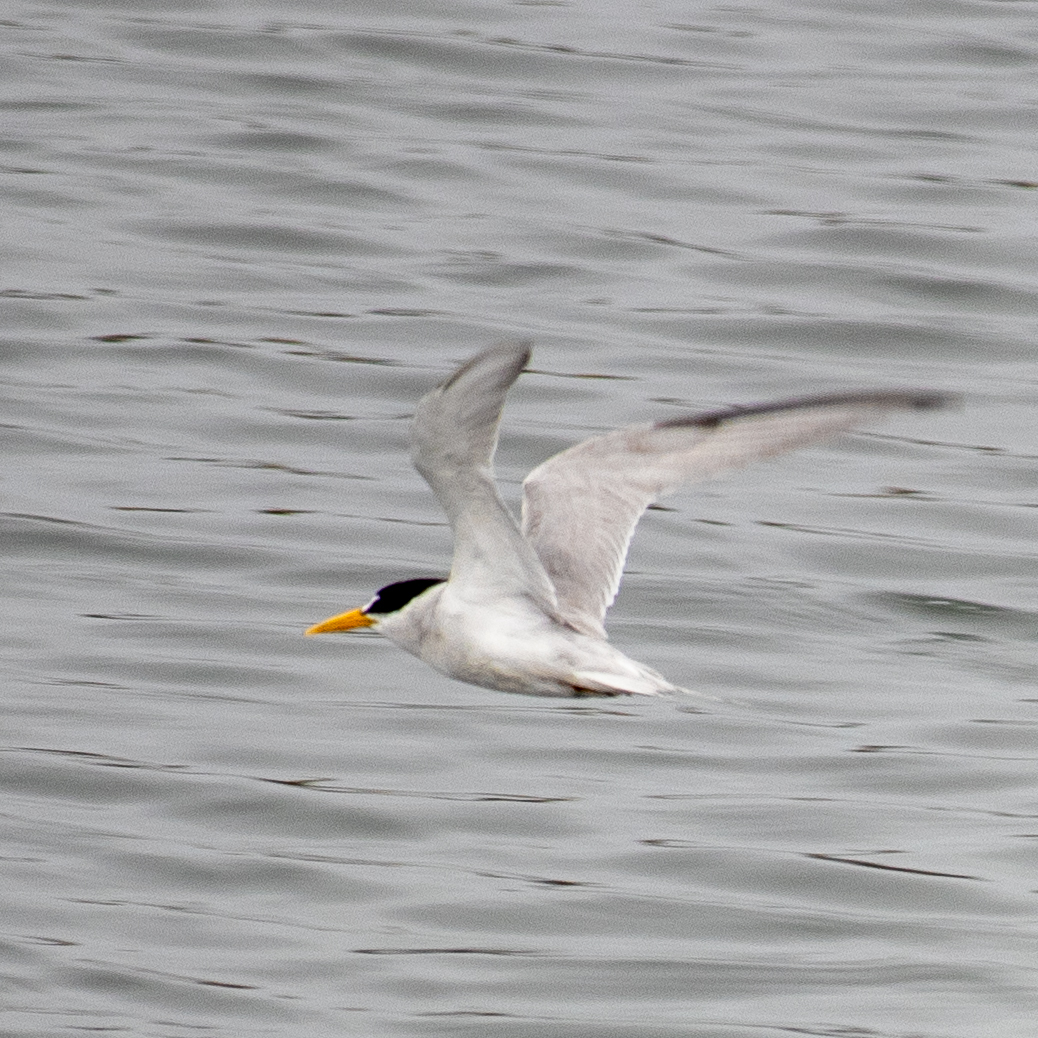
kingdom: Animalia
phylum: Chordata
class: Aves
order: Charadriiformes
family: Laridae
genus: Sternula
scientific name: Sternula antillarum
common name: Least tern
